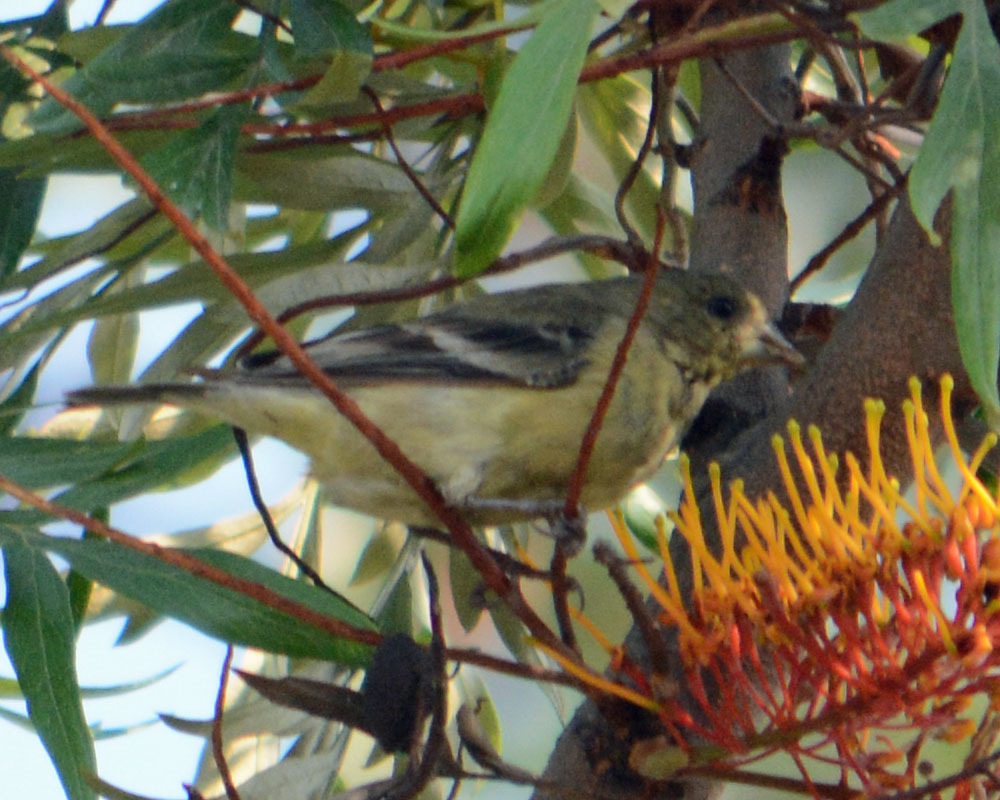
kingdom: Animalia
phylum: Chordata
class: Aves
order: Passeriformes
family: Fringillidae
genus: Spinus
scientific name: Spinus psaltria
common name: Lesser goldfinch
